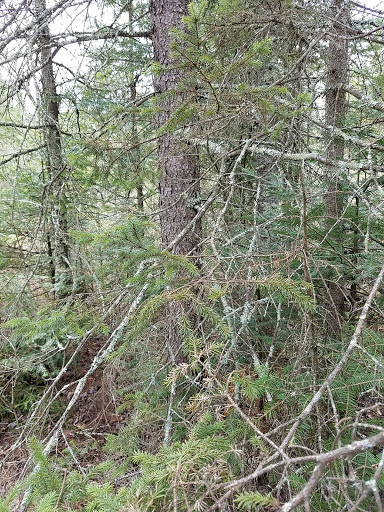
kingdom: Plantae
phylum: Tracheophyta
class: Pinopsida
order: Pinales
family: Pinaceae
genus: Picea
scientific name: Picea mariana
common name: Black spruce
